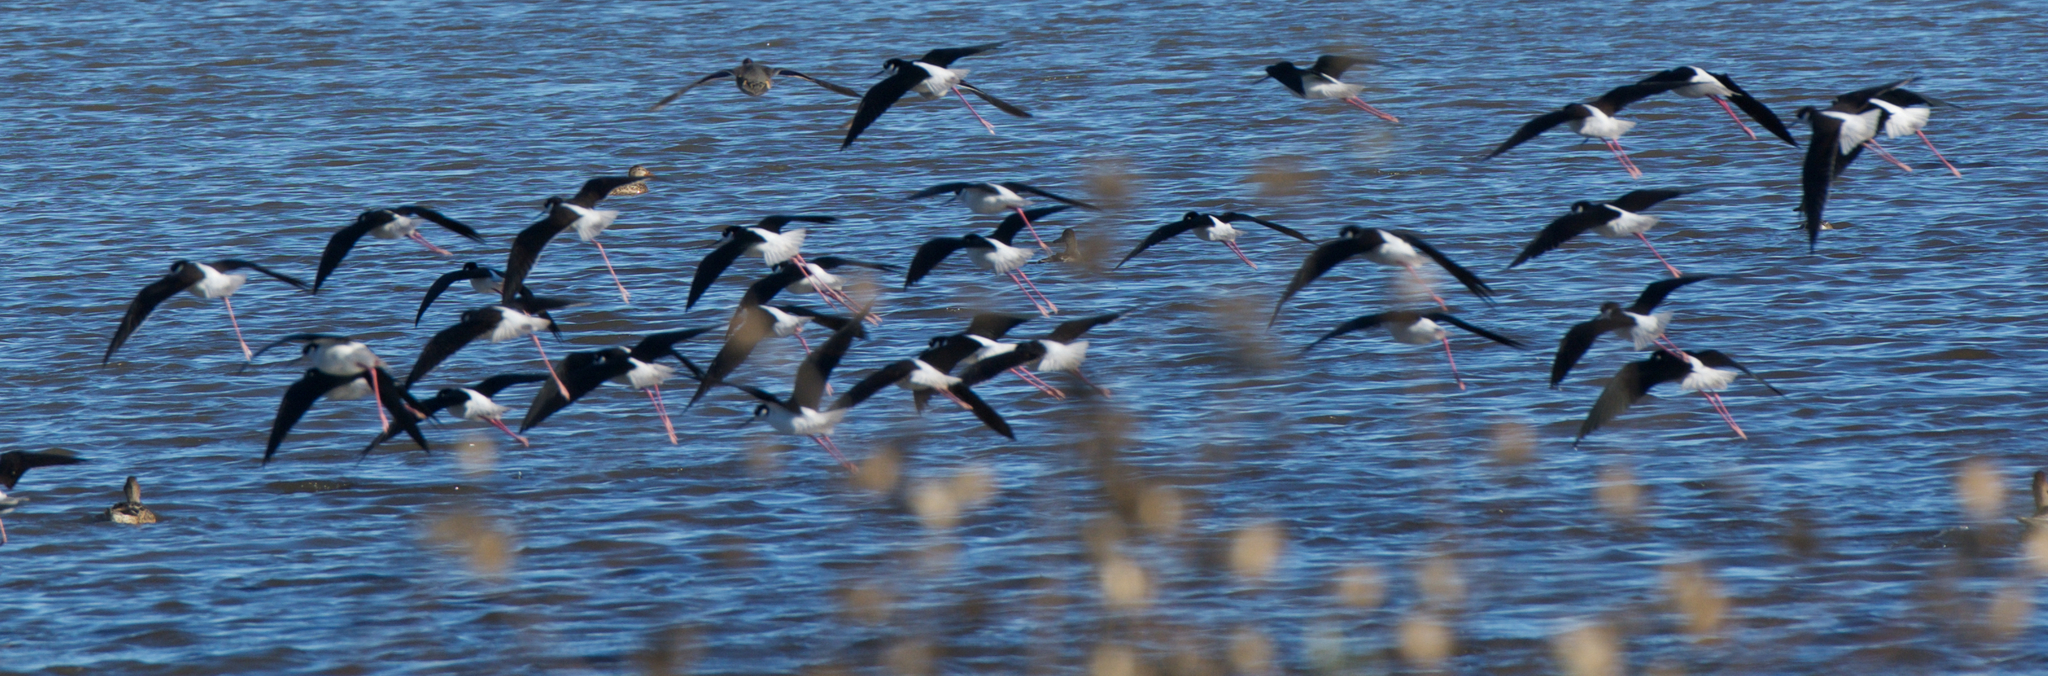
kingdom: Animalia
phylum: Chordata
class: Aves
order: Charadriiformes
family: Recurvirostridae
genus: Himantopus
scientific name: Himantopus mexicanus
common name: Black-necked stilt
